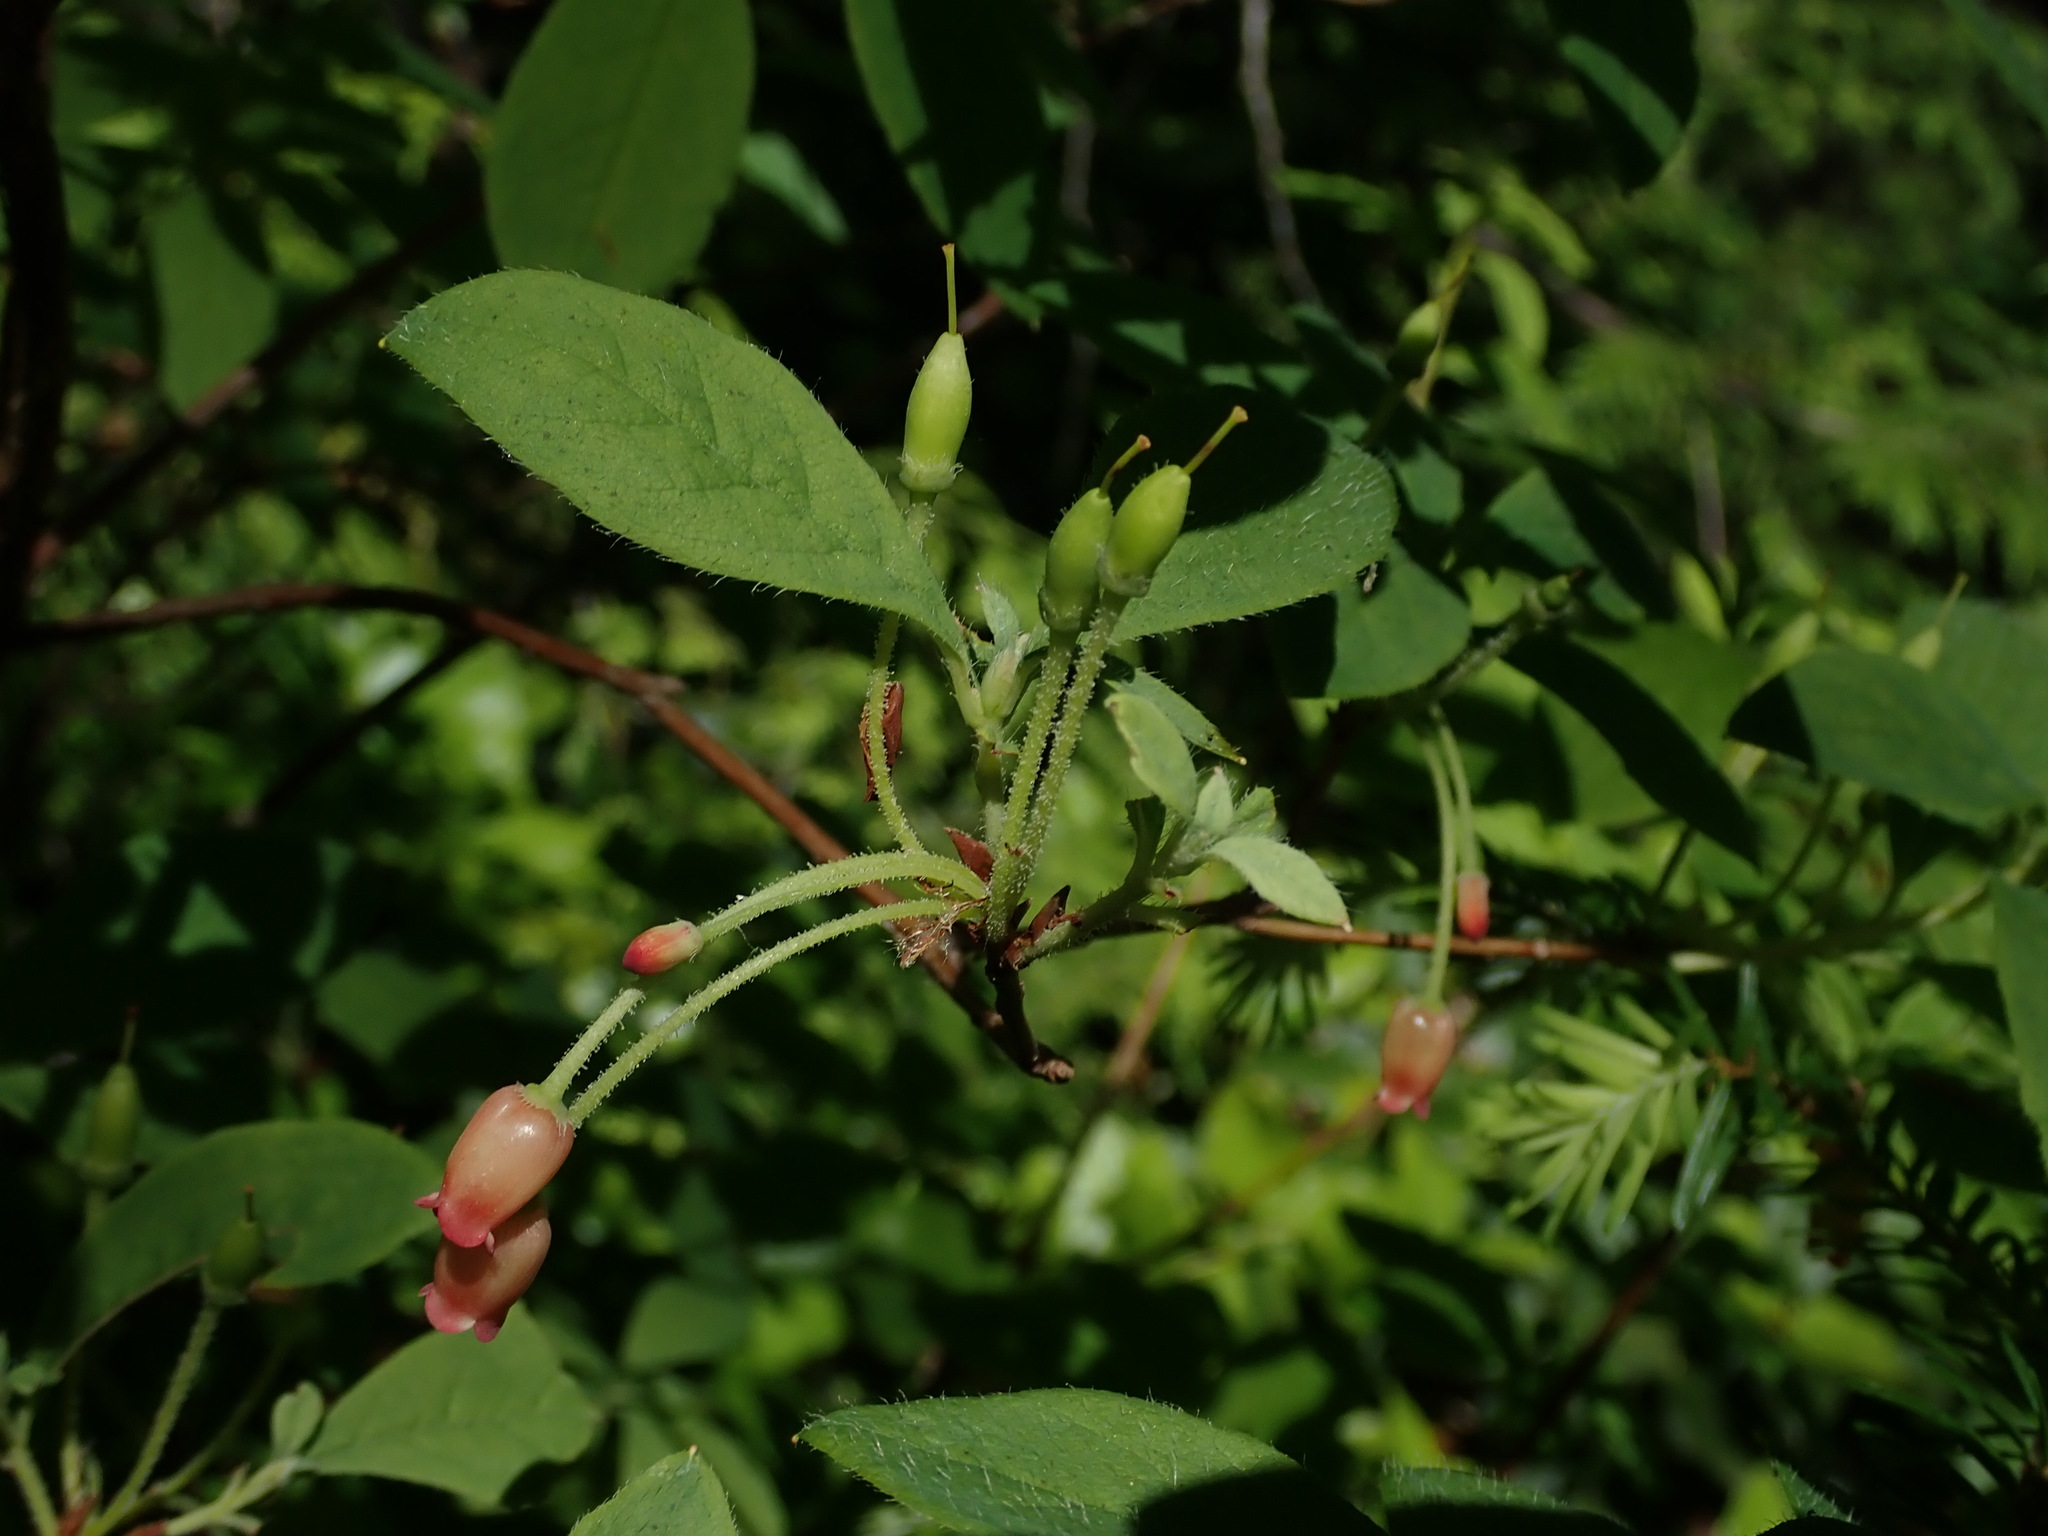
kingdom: Plantae
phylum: Tracheophyta
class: Magnoliopsida
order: Ericales
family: Ericaceae
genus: Rhododendron
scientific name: Rhododendron menziesii
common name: Pacific menziesia
